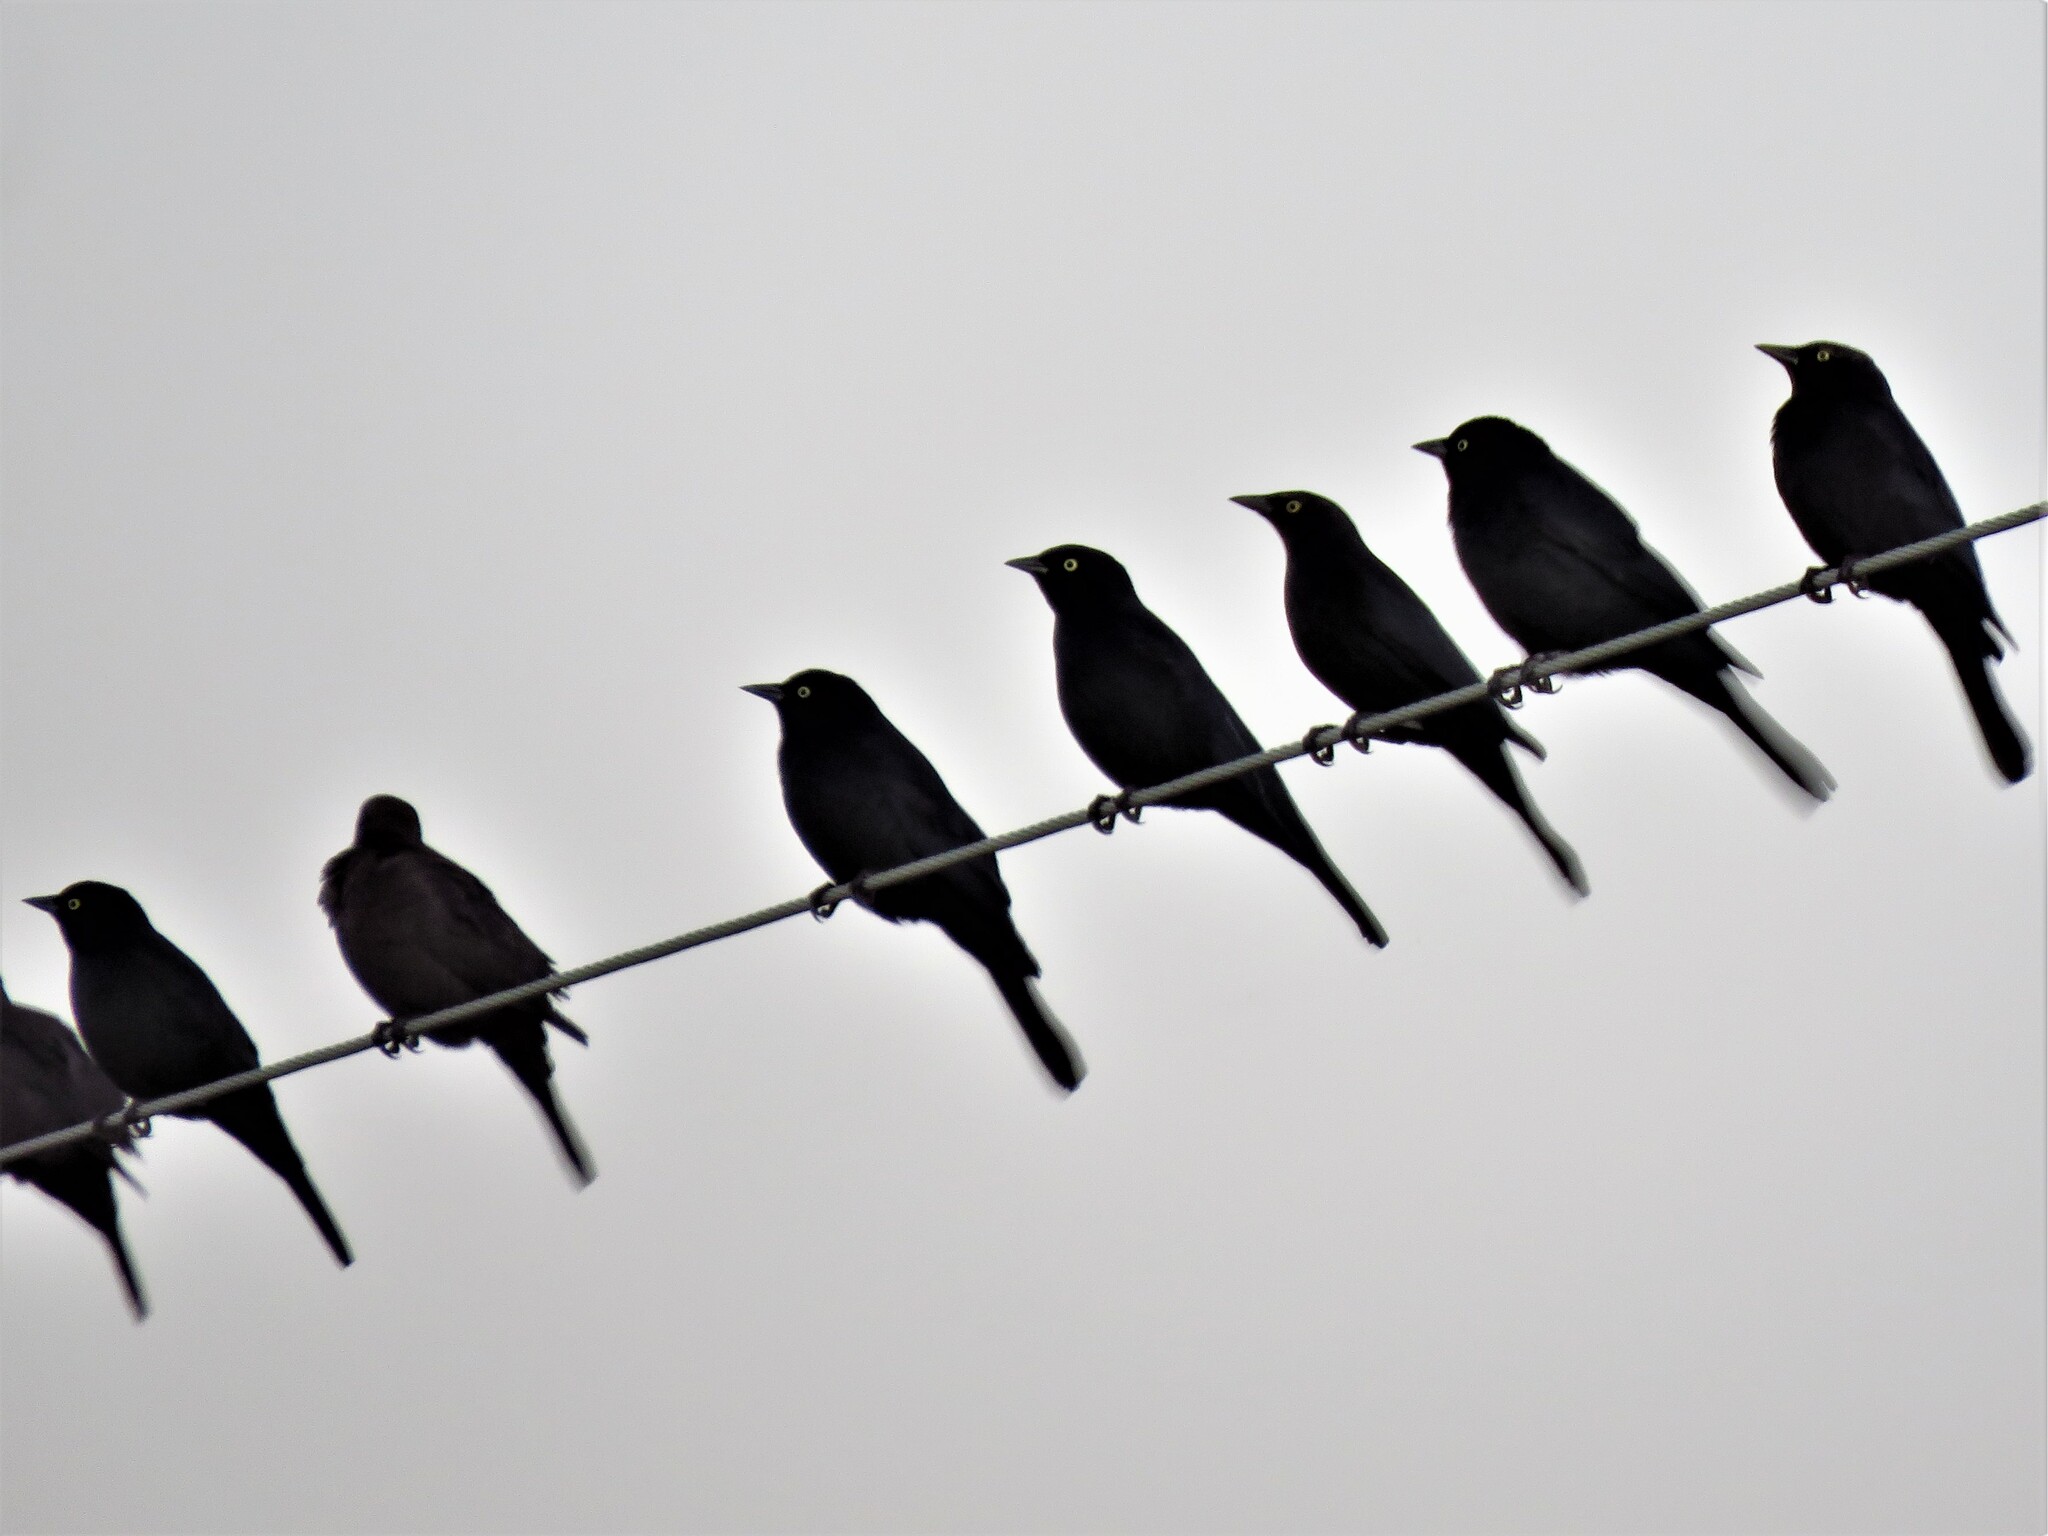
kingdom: Animalia
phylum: Chordata
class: Aves
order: Passeriformes
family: Icteridae
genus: Euphagus
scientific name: Euphagus cyanocephalus
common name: Brewer's blackbird
